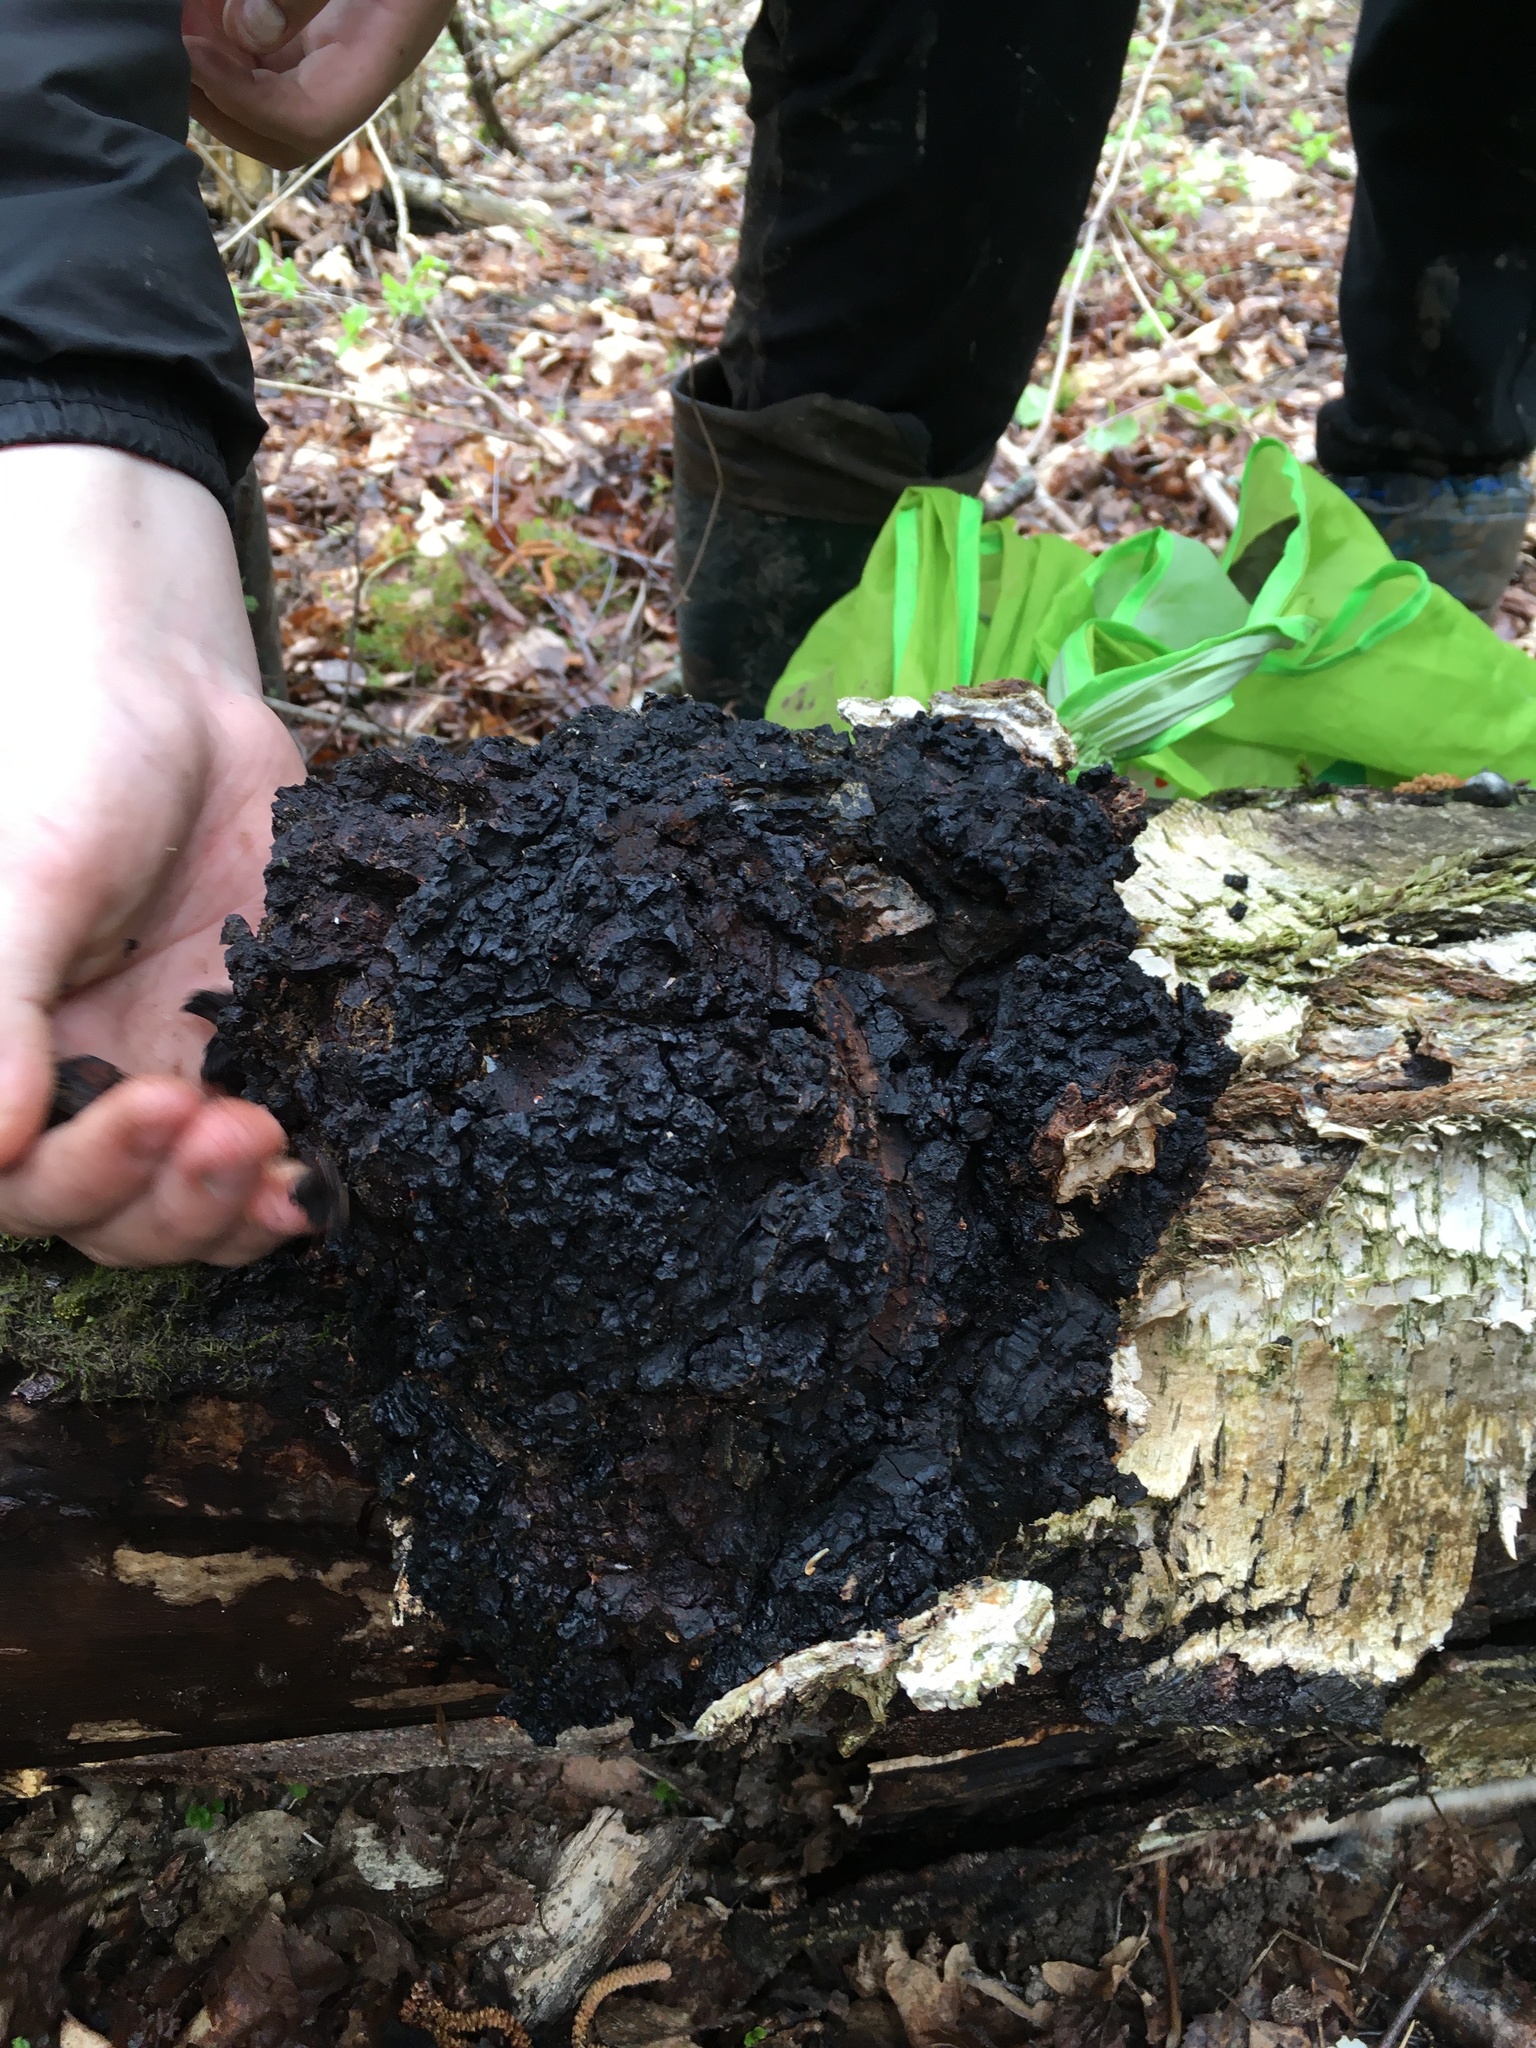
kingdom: Fungi
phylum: Basidiomycota
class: Agaricomycetes
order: Hymenochaetales
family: Hymenochaetaceae
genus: Inonotus
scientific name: Inonotus obliquus
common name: Chaga
